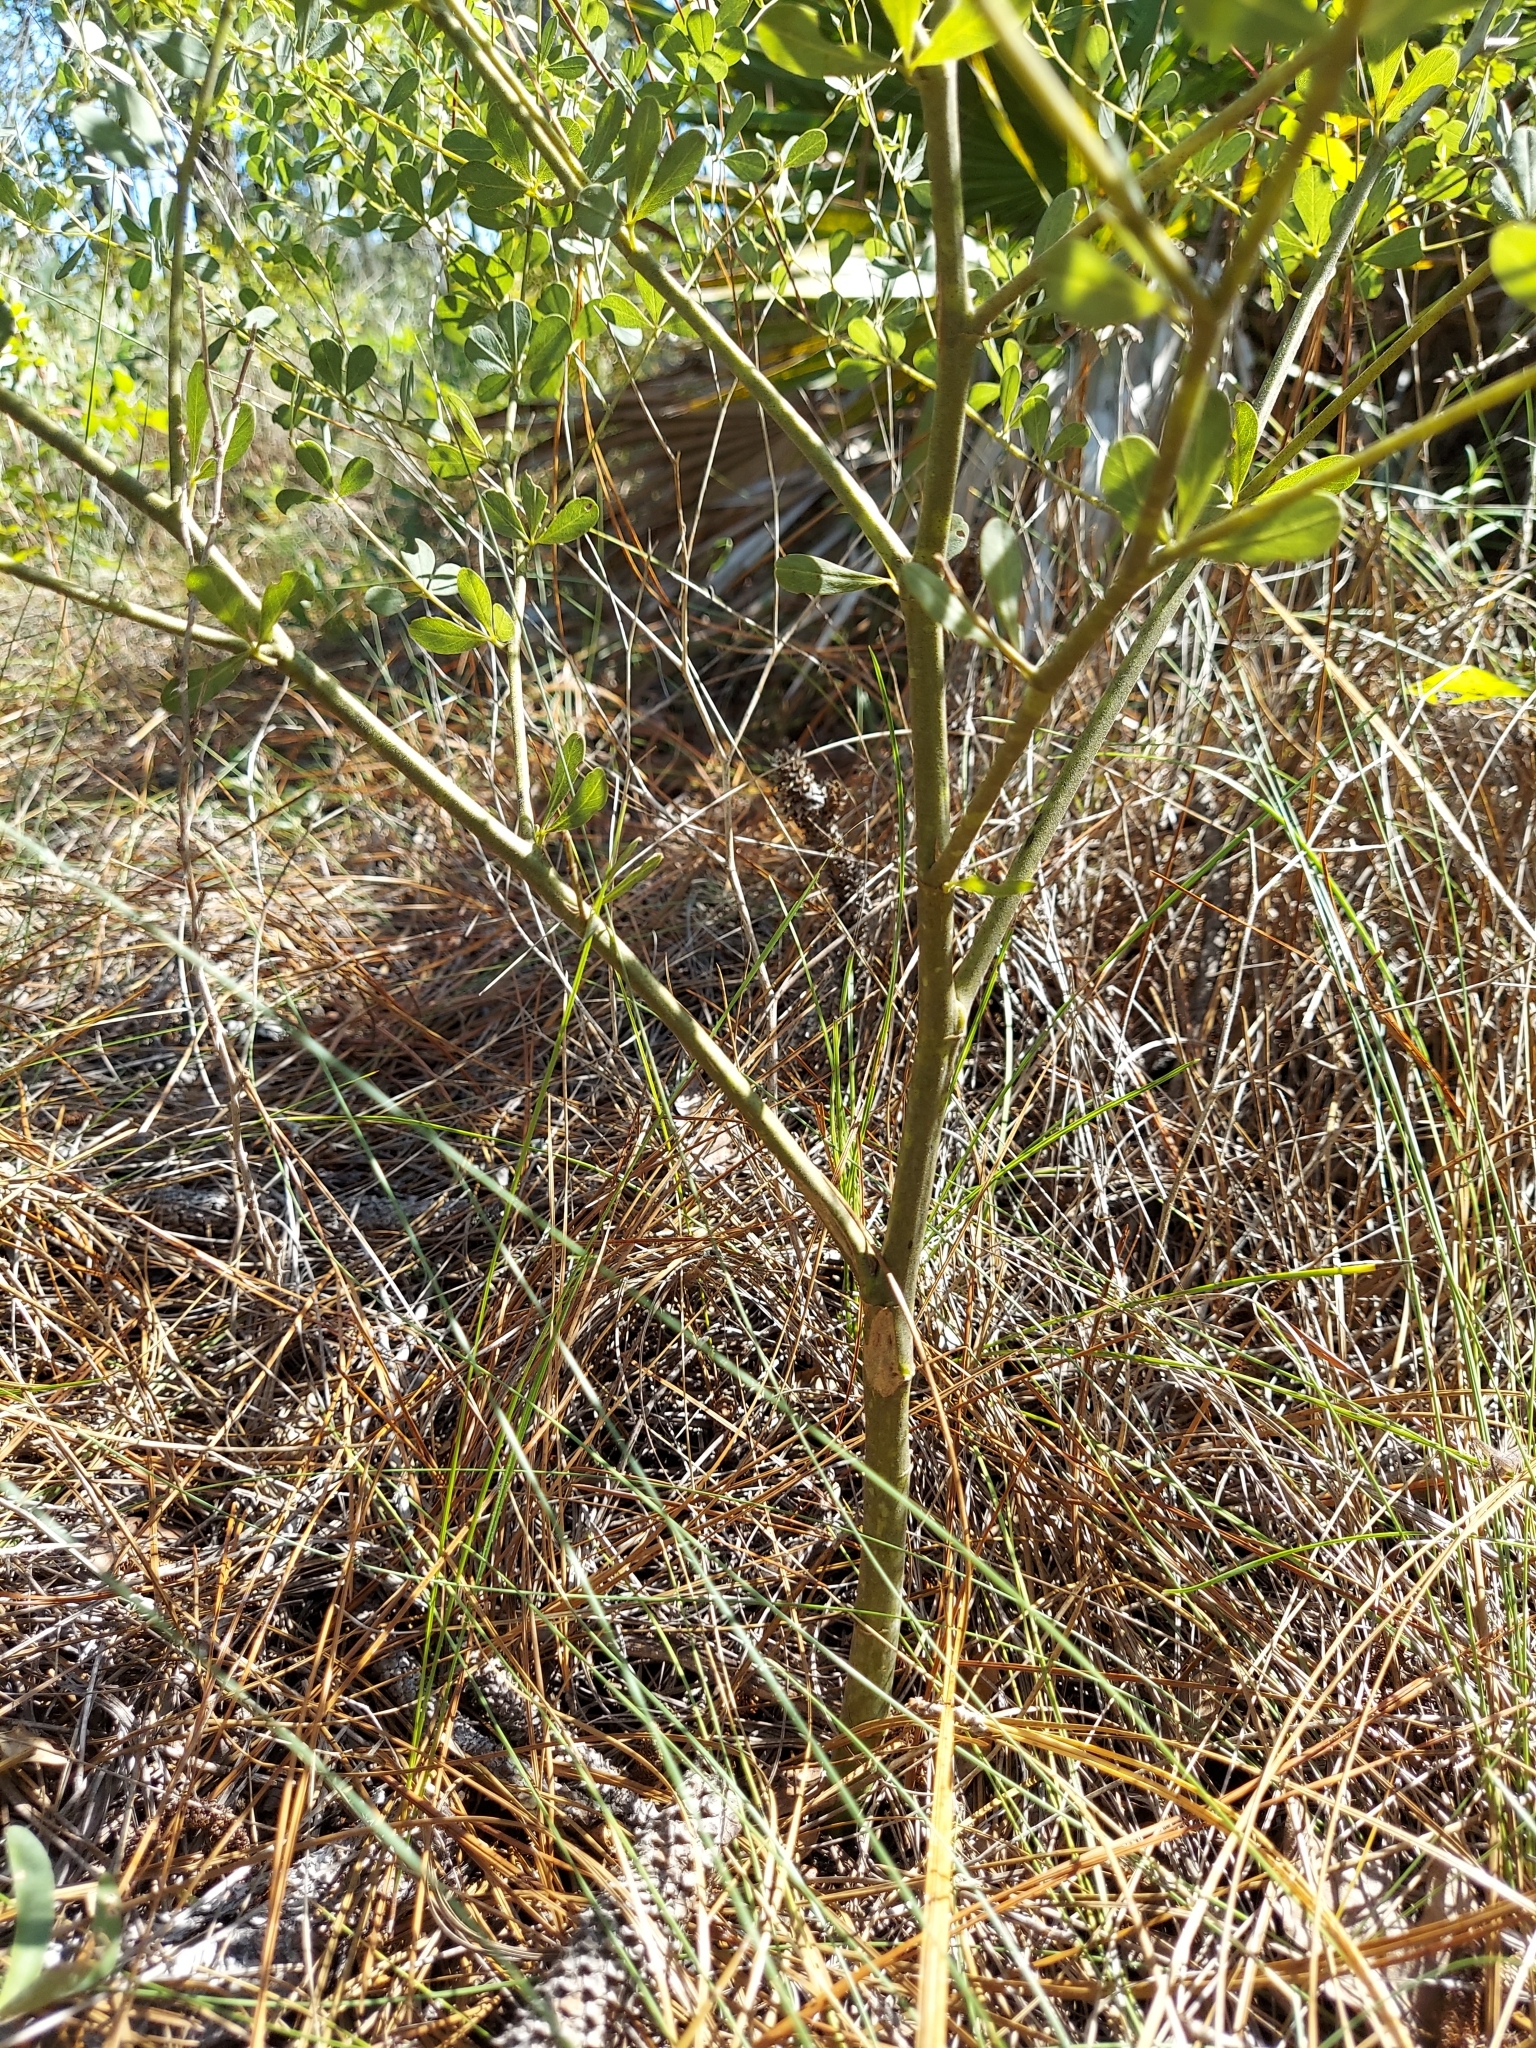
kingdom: Plantae
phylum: Tracheophyta
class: Magnoliopsida
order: Fabales
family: Fabaceae
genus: Baptisia
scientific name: Baptisia lecontei
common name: Pineland wild indigo
